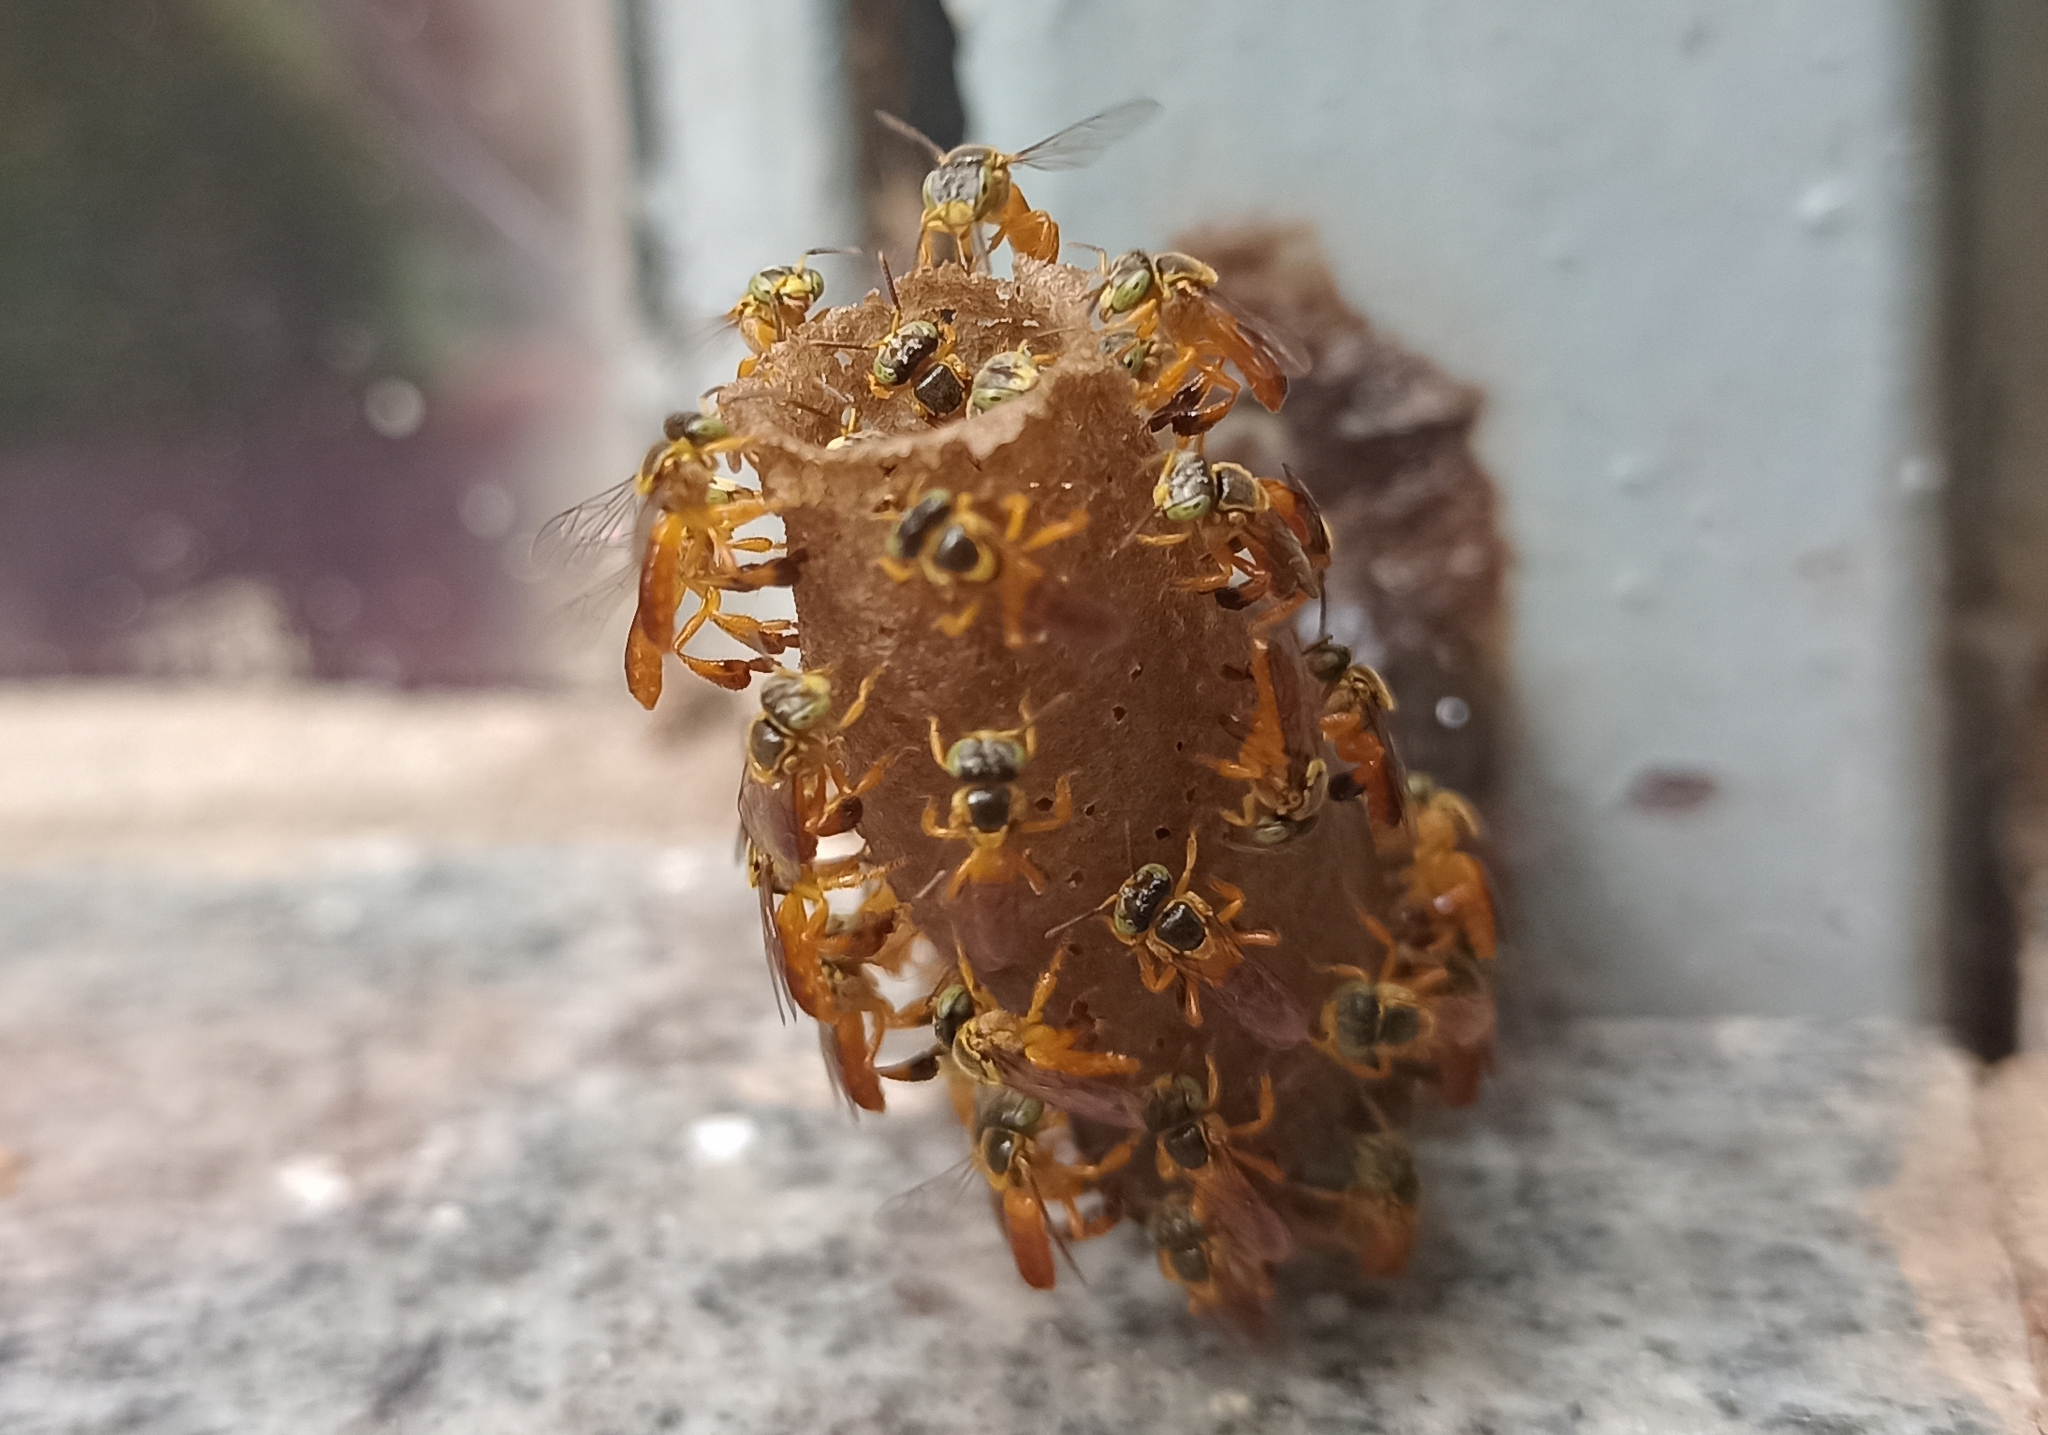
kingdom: Animalia
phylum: Arthropoda
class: Insecta
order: Hymenoptera
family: Apidae
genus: Tetragonisca
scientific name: Tetragonisca fiebrigi
